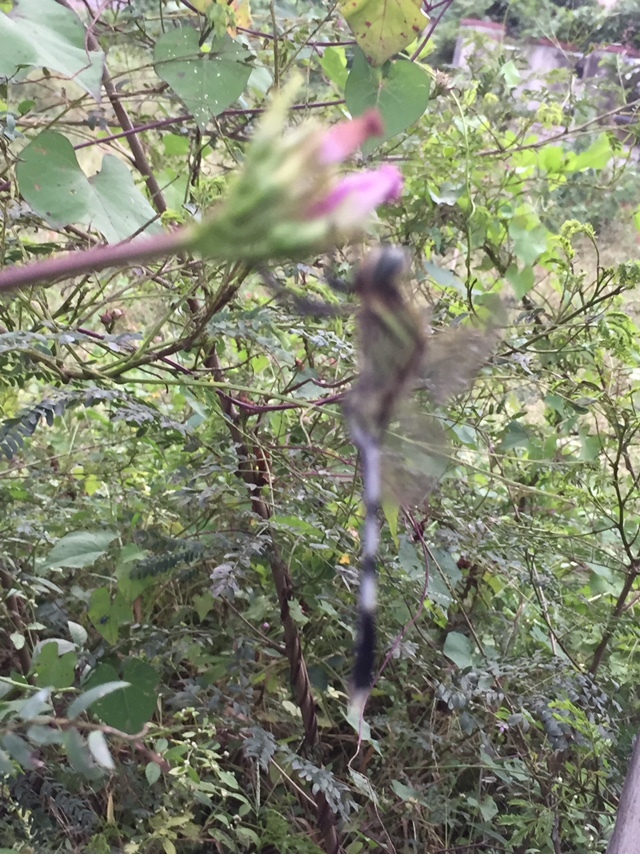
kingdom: Animalia
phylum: Arthropoda
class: Insecta
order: Odonata
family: Libellulidae
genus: Orthetrum
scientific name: Orthetrum sabina
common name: Slender skimmer
